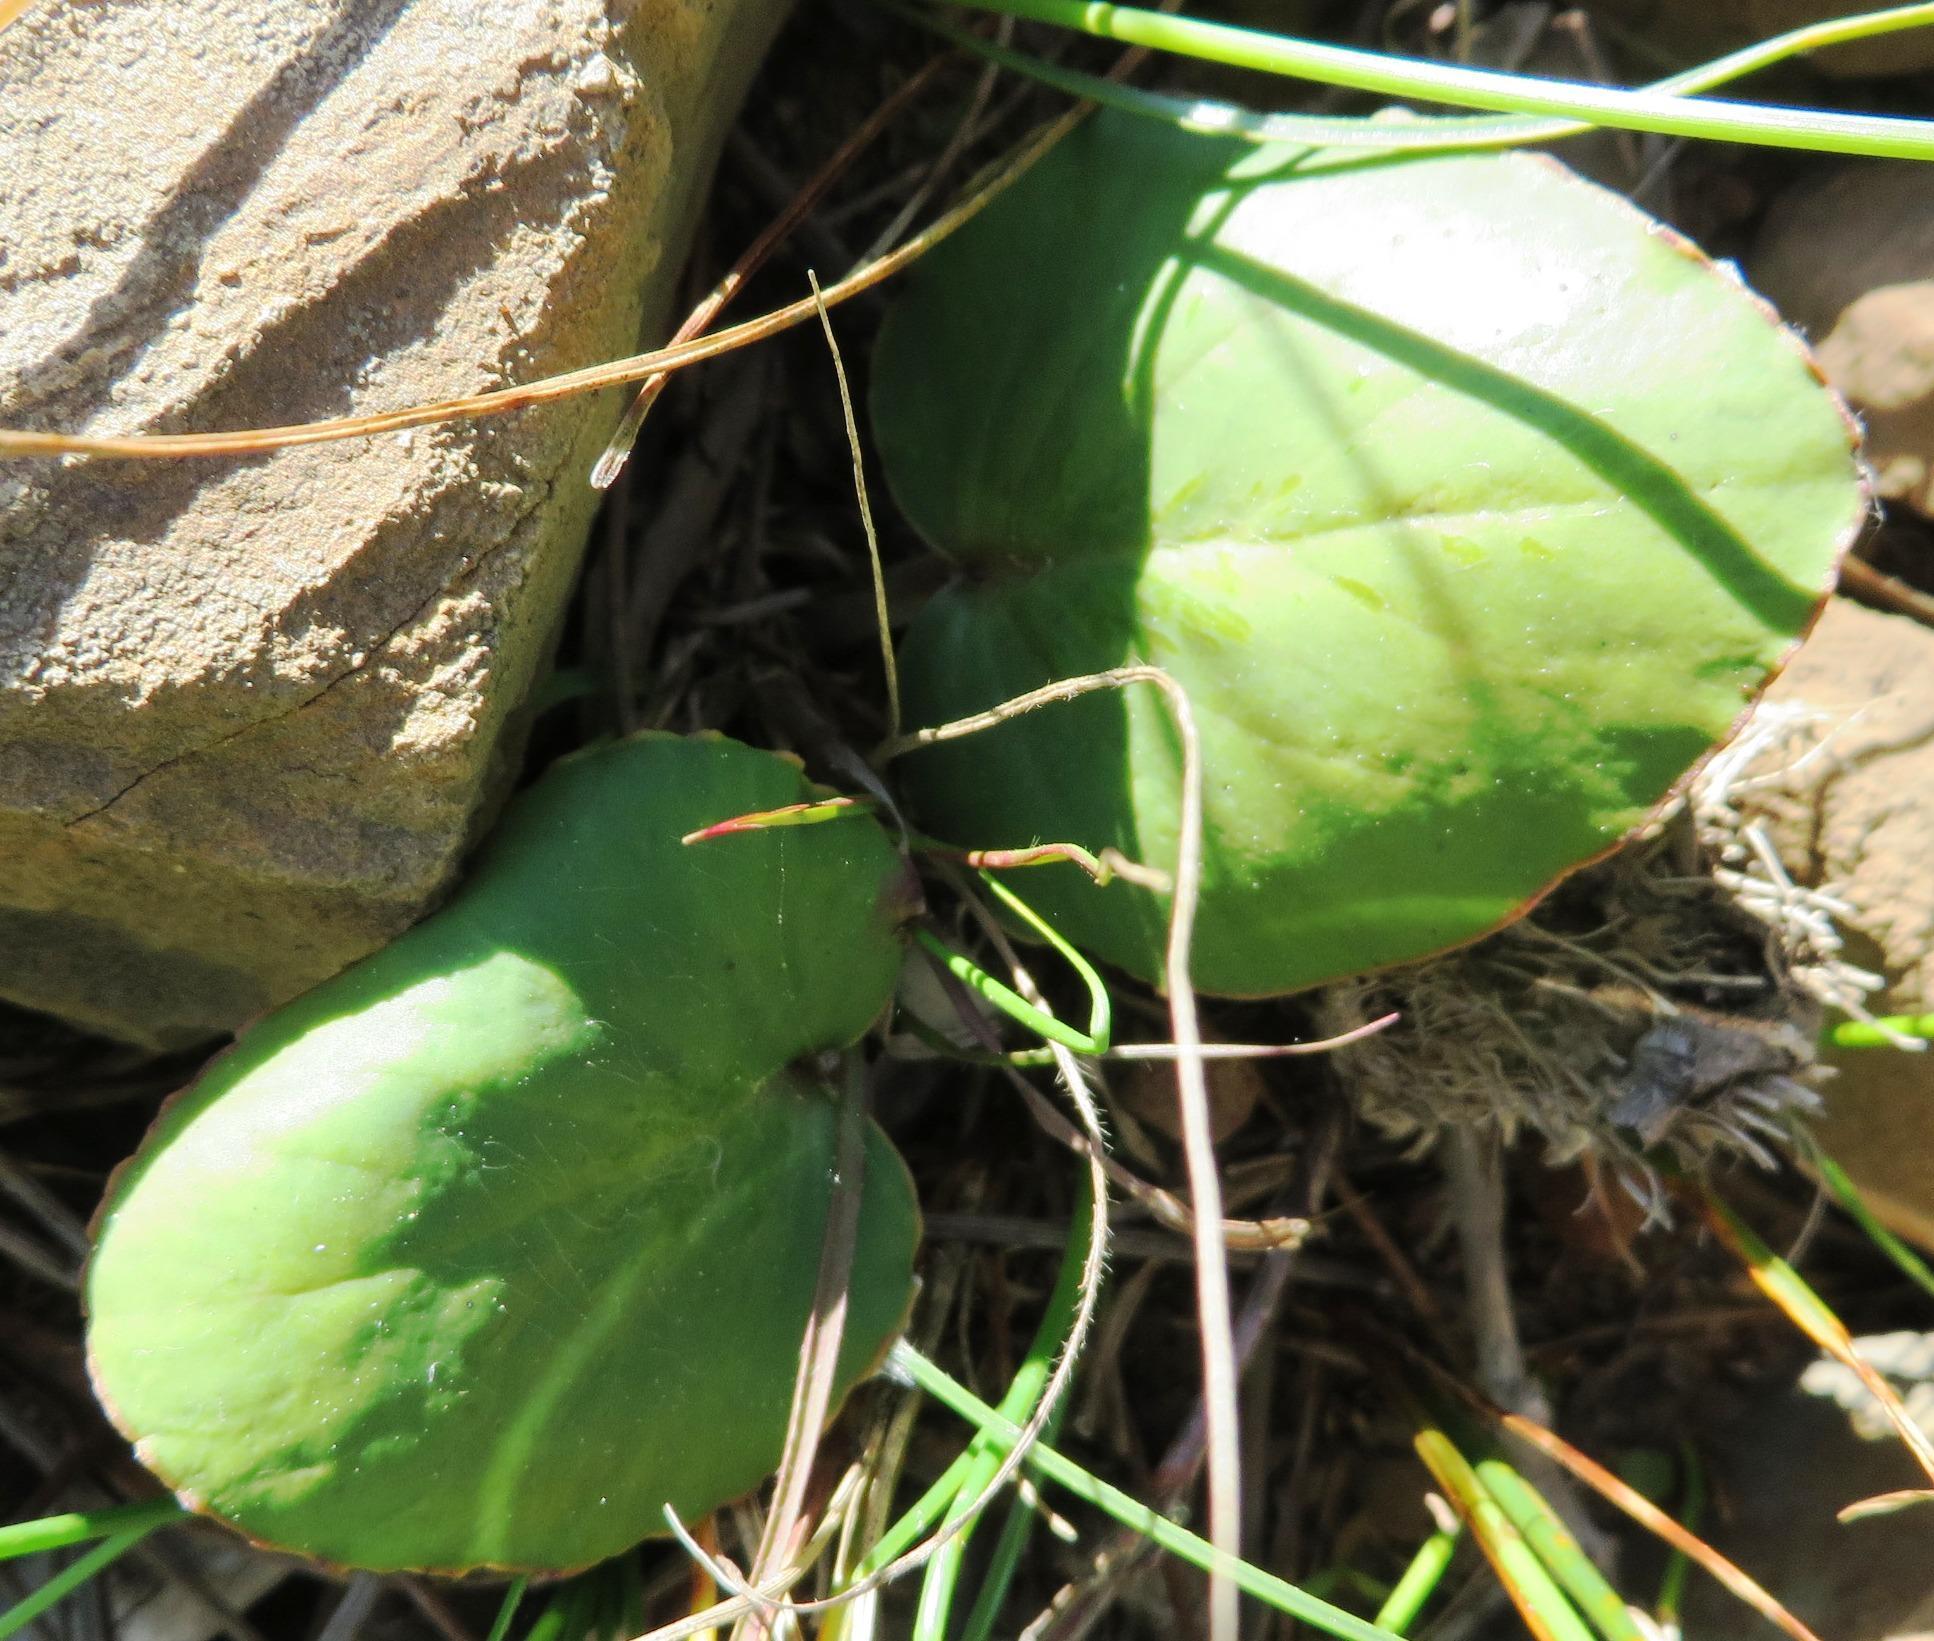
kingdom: Plantae
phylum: Tracheophyta
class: Magnoliopsida
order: Geraniales
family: Geraniaceae
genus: Pelargonium
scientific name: Pelargonium asarifolium
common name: Asarum-leaf pelargonium
